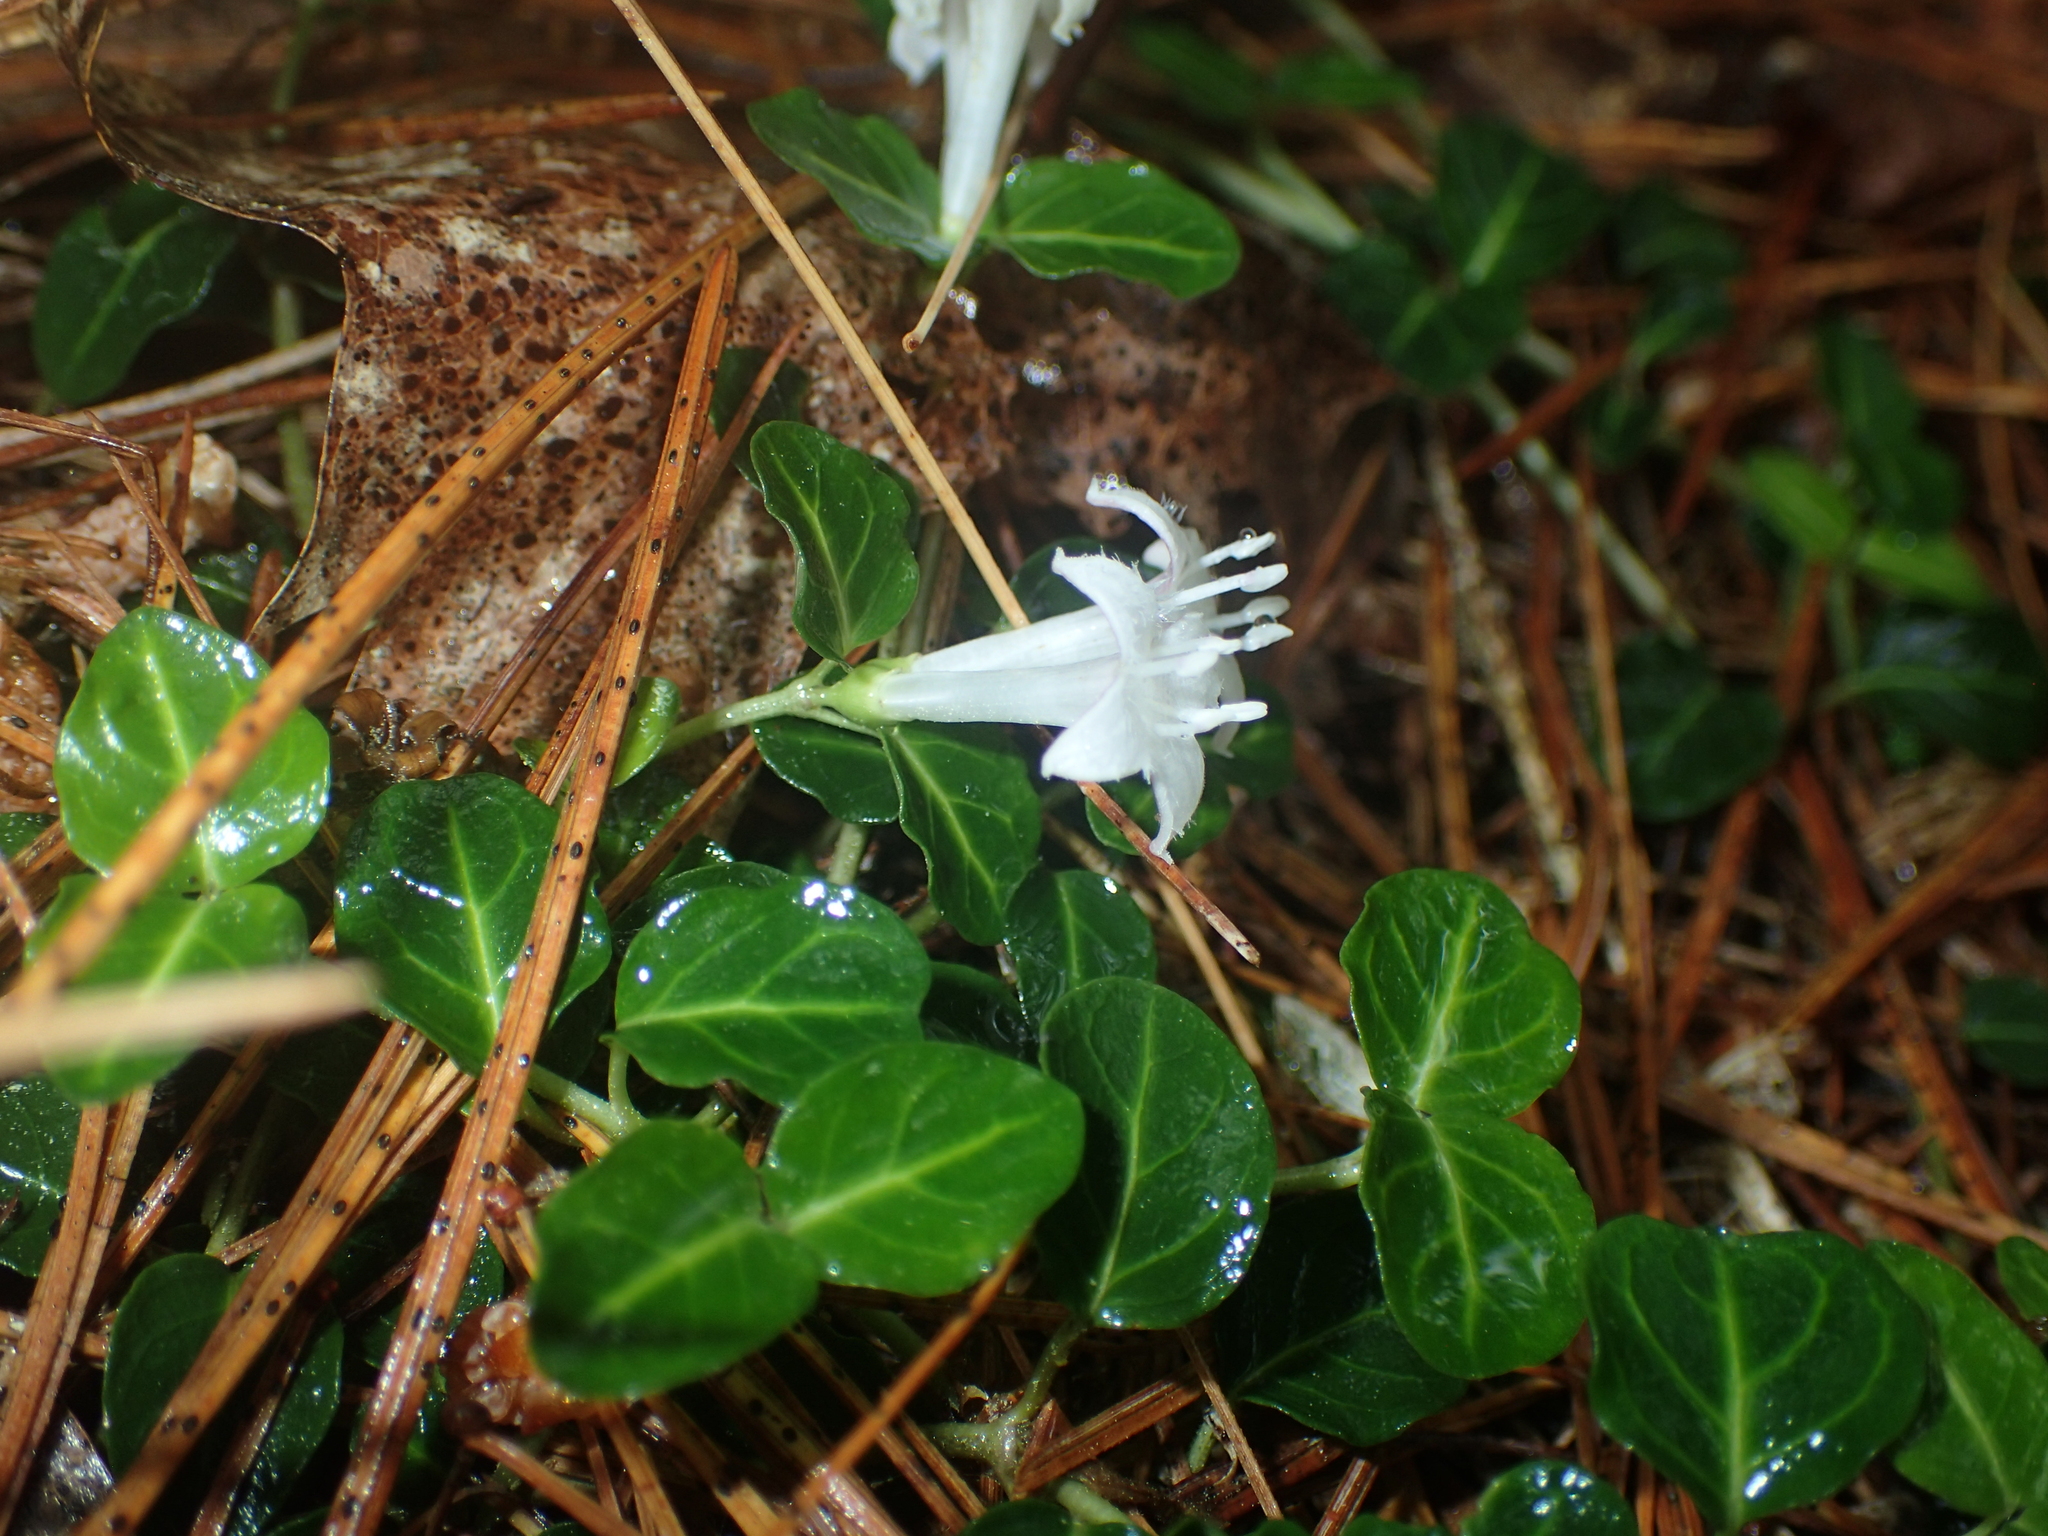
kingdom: Plantae
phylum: Tracheophyta
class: Magnoliopsida
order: Gentianales
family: Rubiaceae
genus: Mitchella
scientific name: Mitchella repens
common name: Partridge-berry
